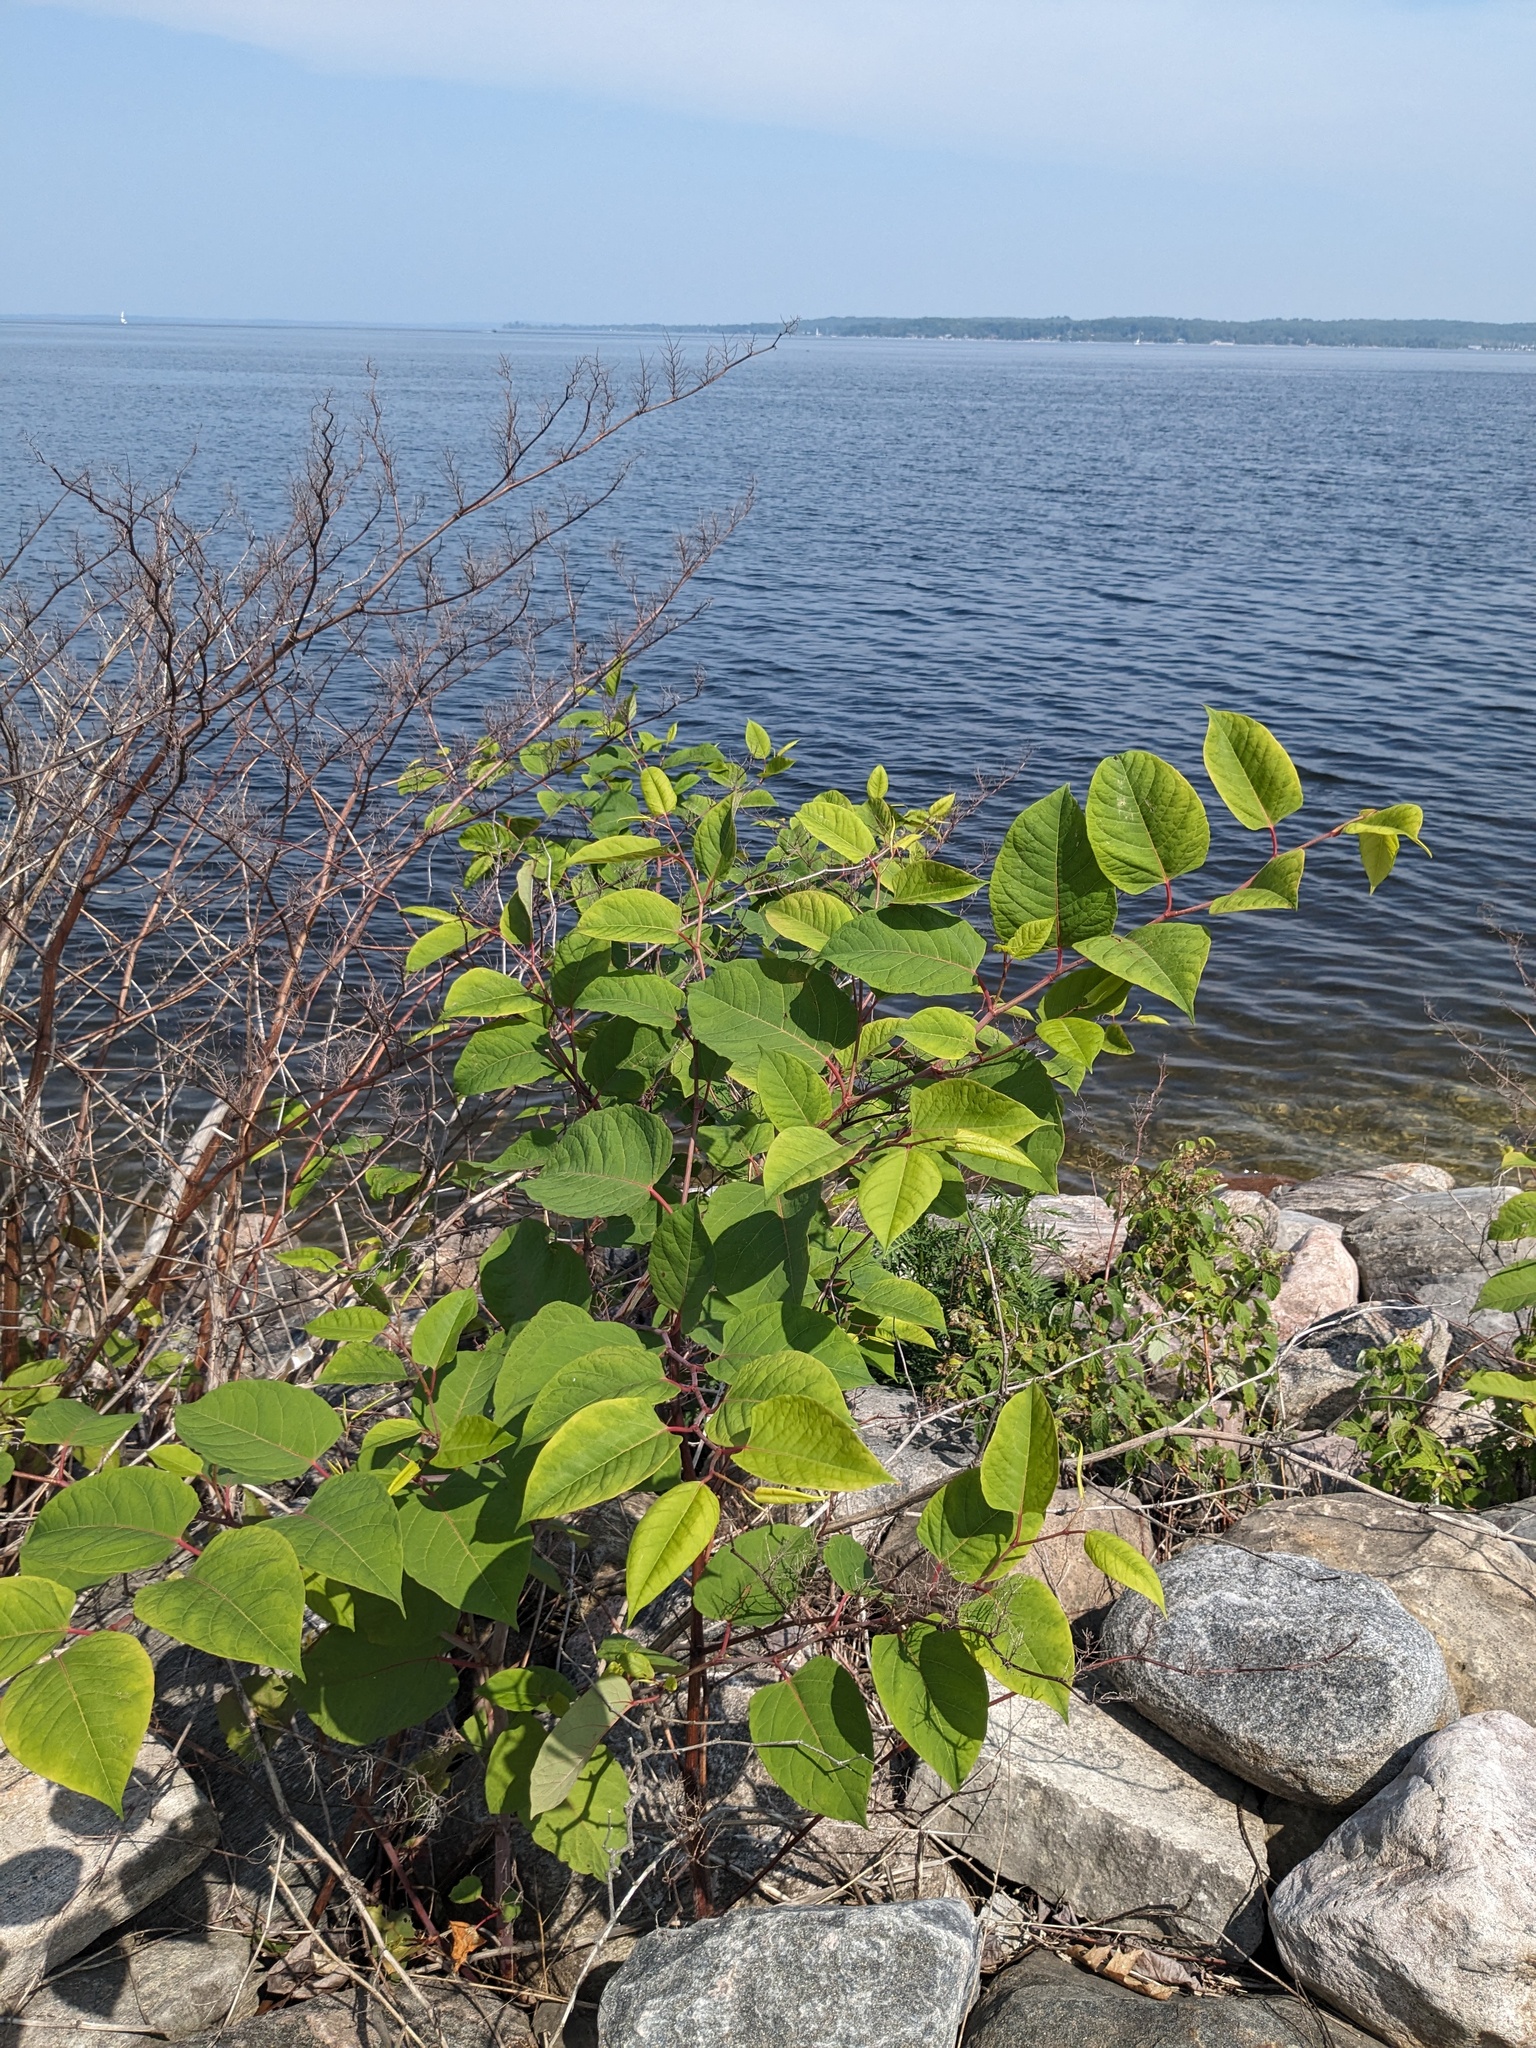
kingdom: Plantae
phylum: Tracheophyta
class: Magnoliopsida
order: Caryophyllales
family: Polygonaceae
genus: Reynoutria
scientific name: Reynoutria japonica
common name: Japanese knotweed
